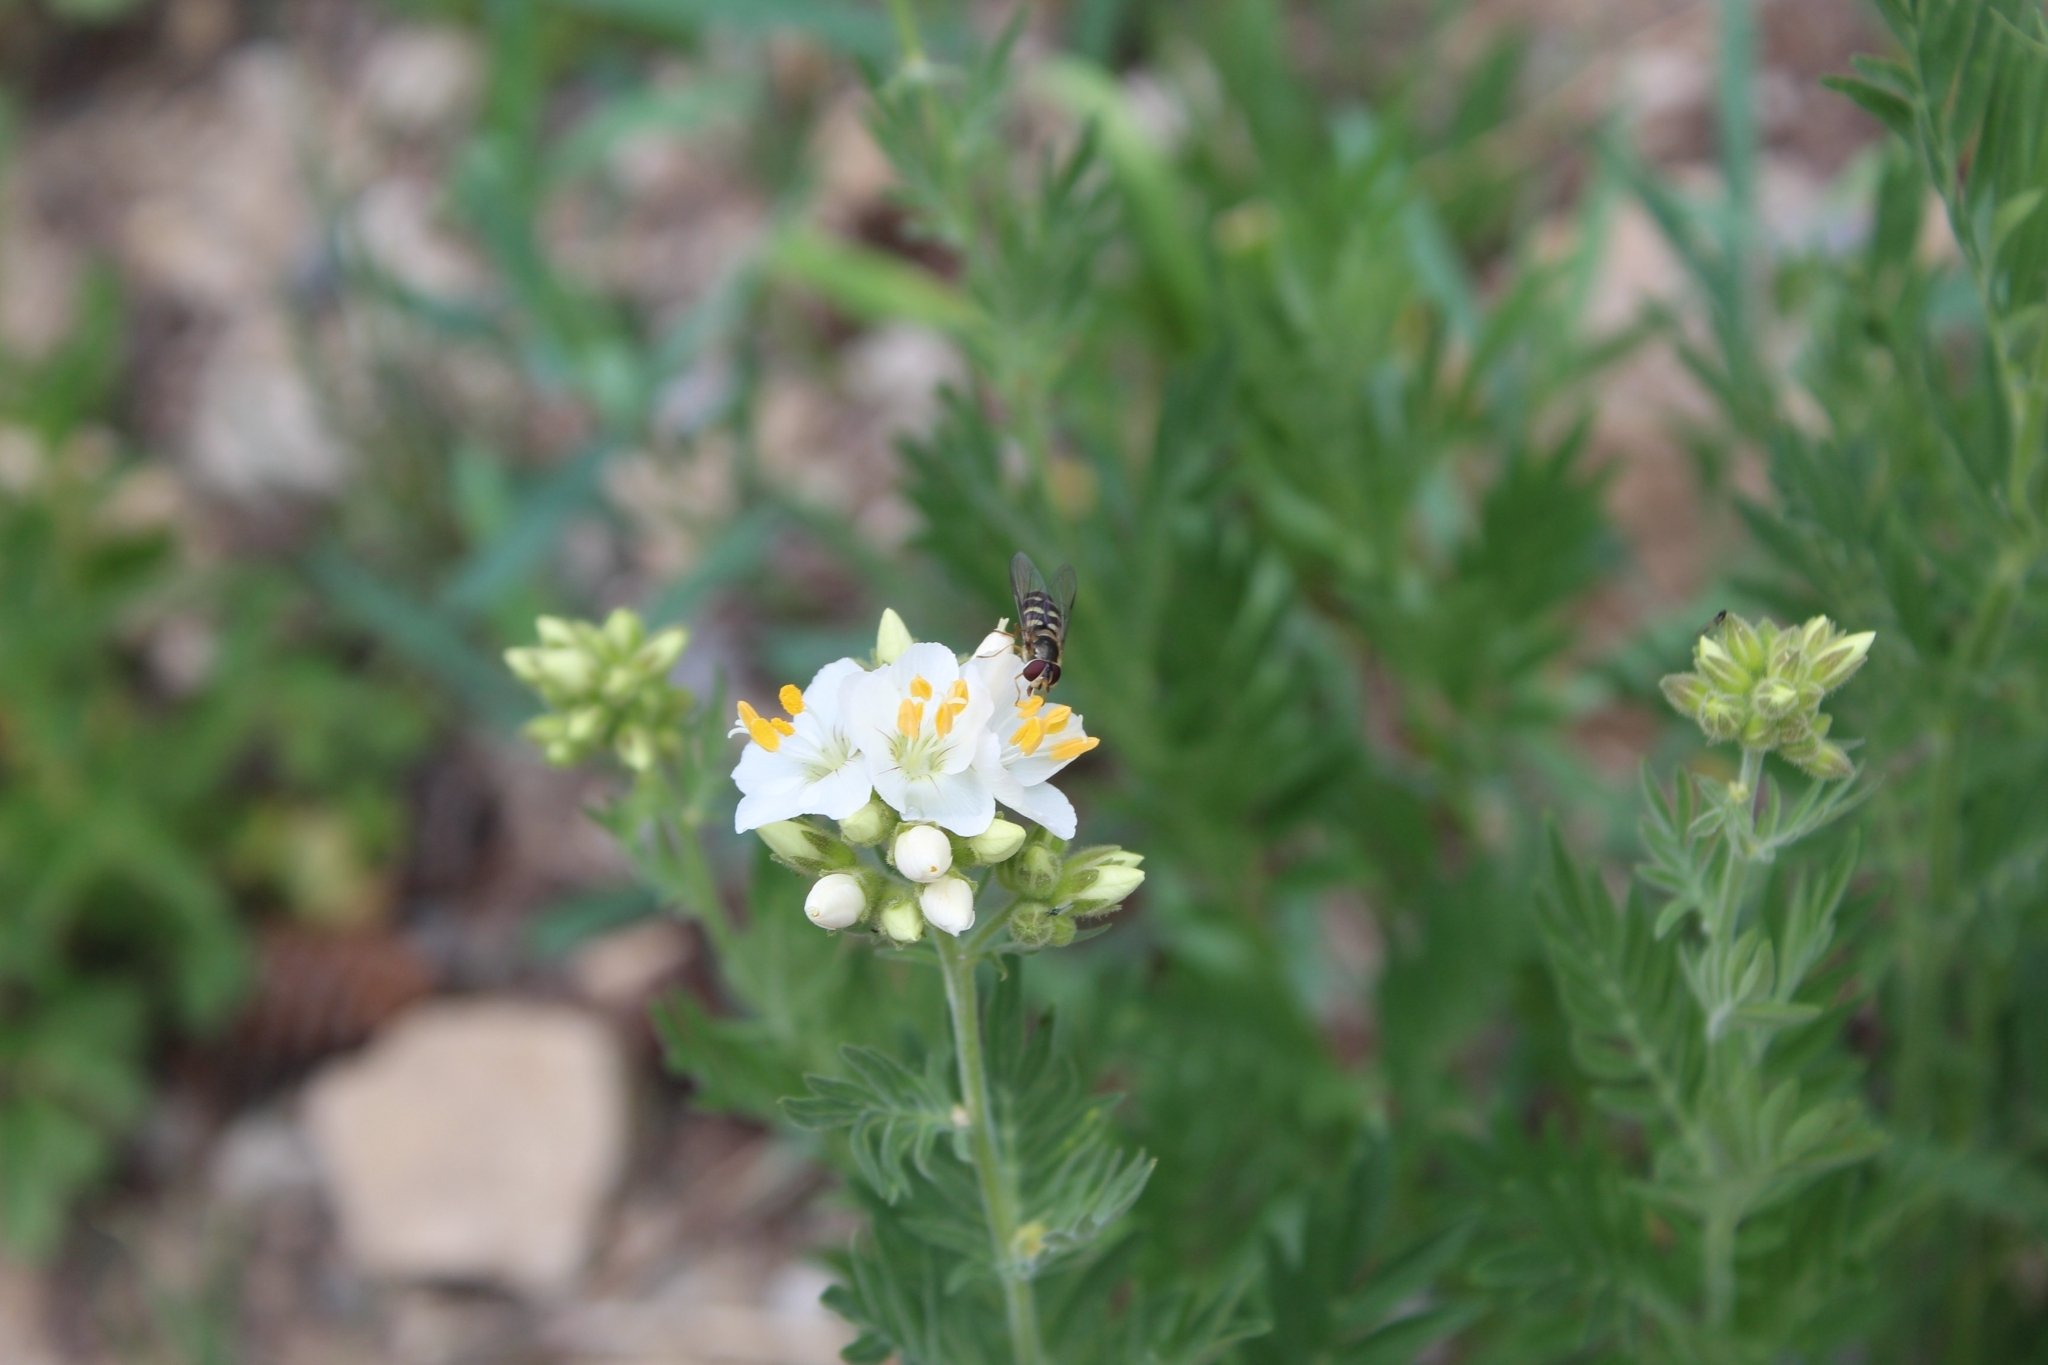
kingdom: Animalia
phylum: Arthropoda
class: Insecta
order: Diptera
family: Syrphidae
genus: Lapposyrphus
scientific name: Lapposyrphus lapponicus
